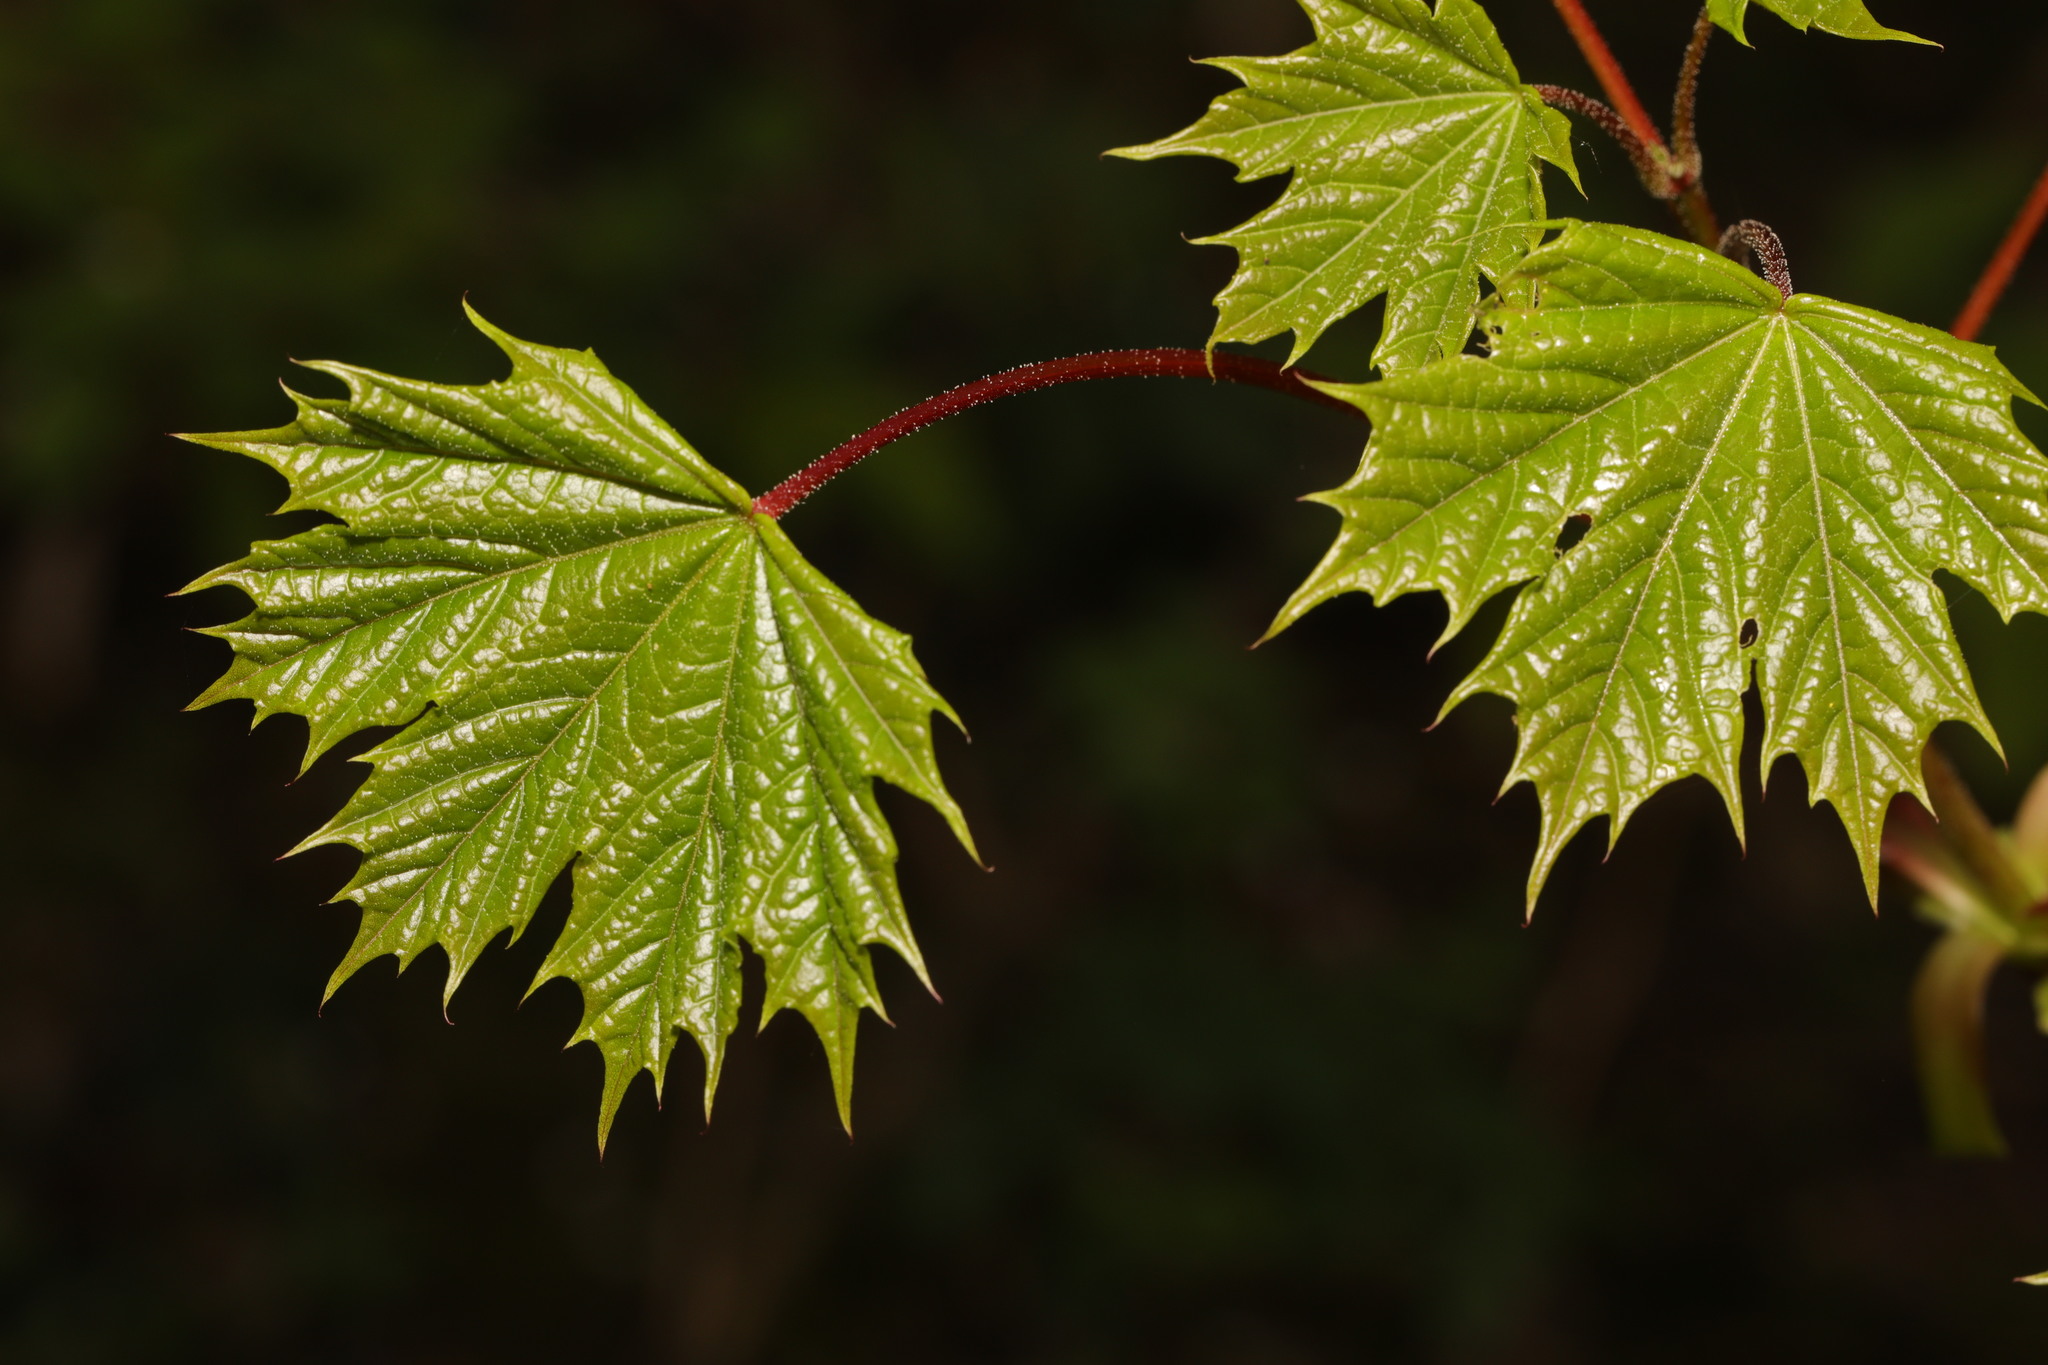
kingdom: Plantae
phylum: Tracheophyta
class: Magnoliopsida
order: Sapindales
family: Sapindaceae
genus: Acer
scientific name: Acer platanoides
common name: Norway maple
